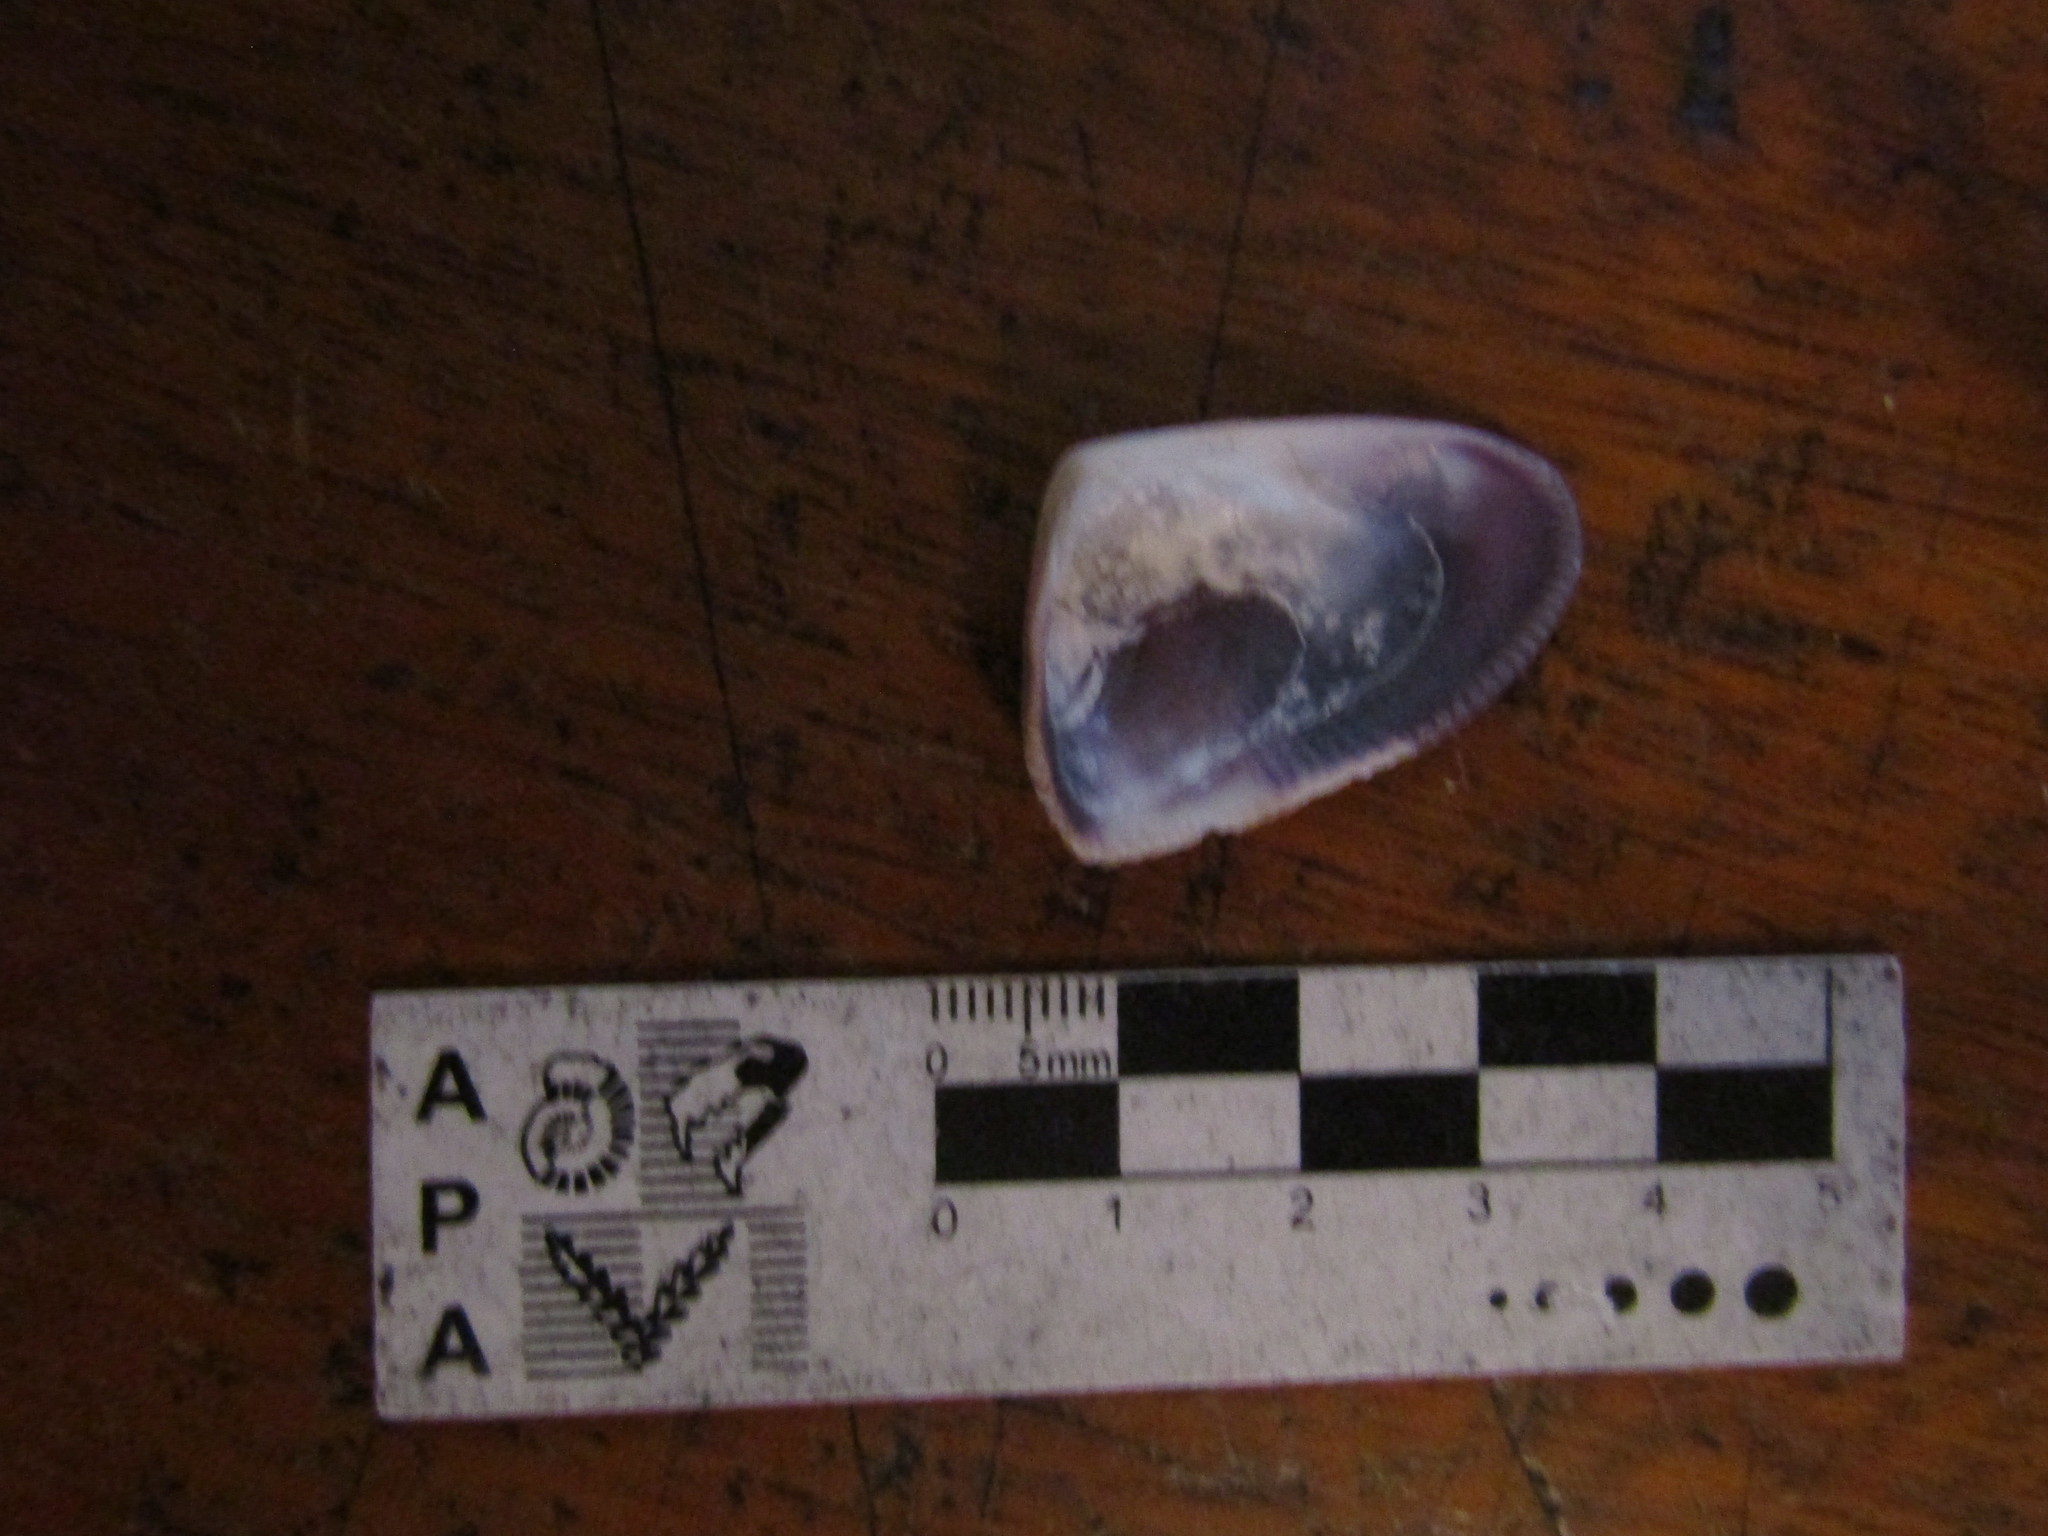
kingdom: Animalia
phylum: Mollusca
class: Bivalvia
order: Cardiida
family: Donacidae
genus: Donax
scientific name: Donax hanleyanus
